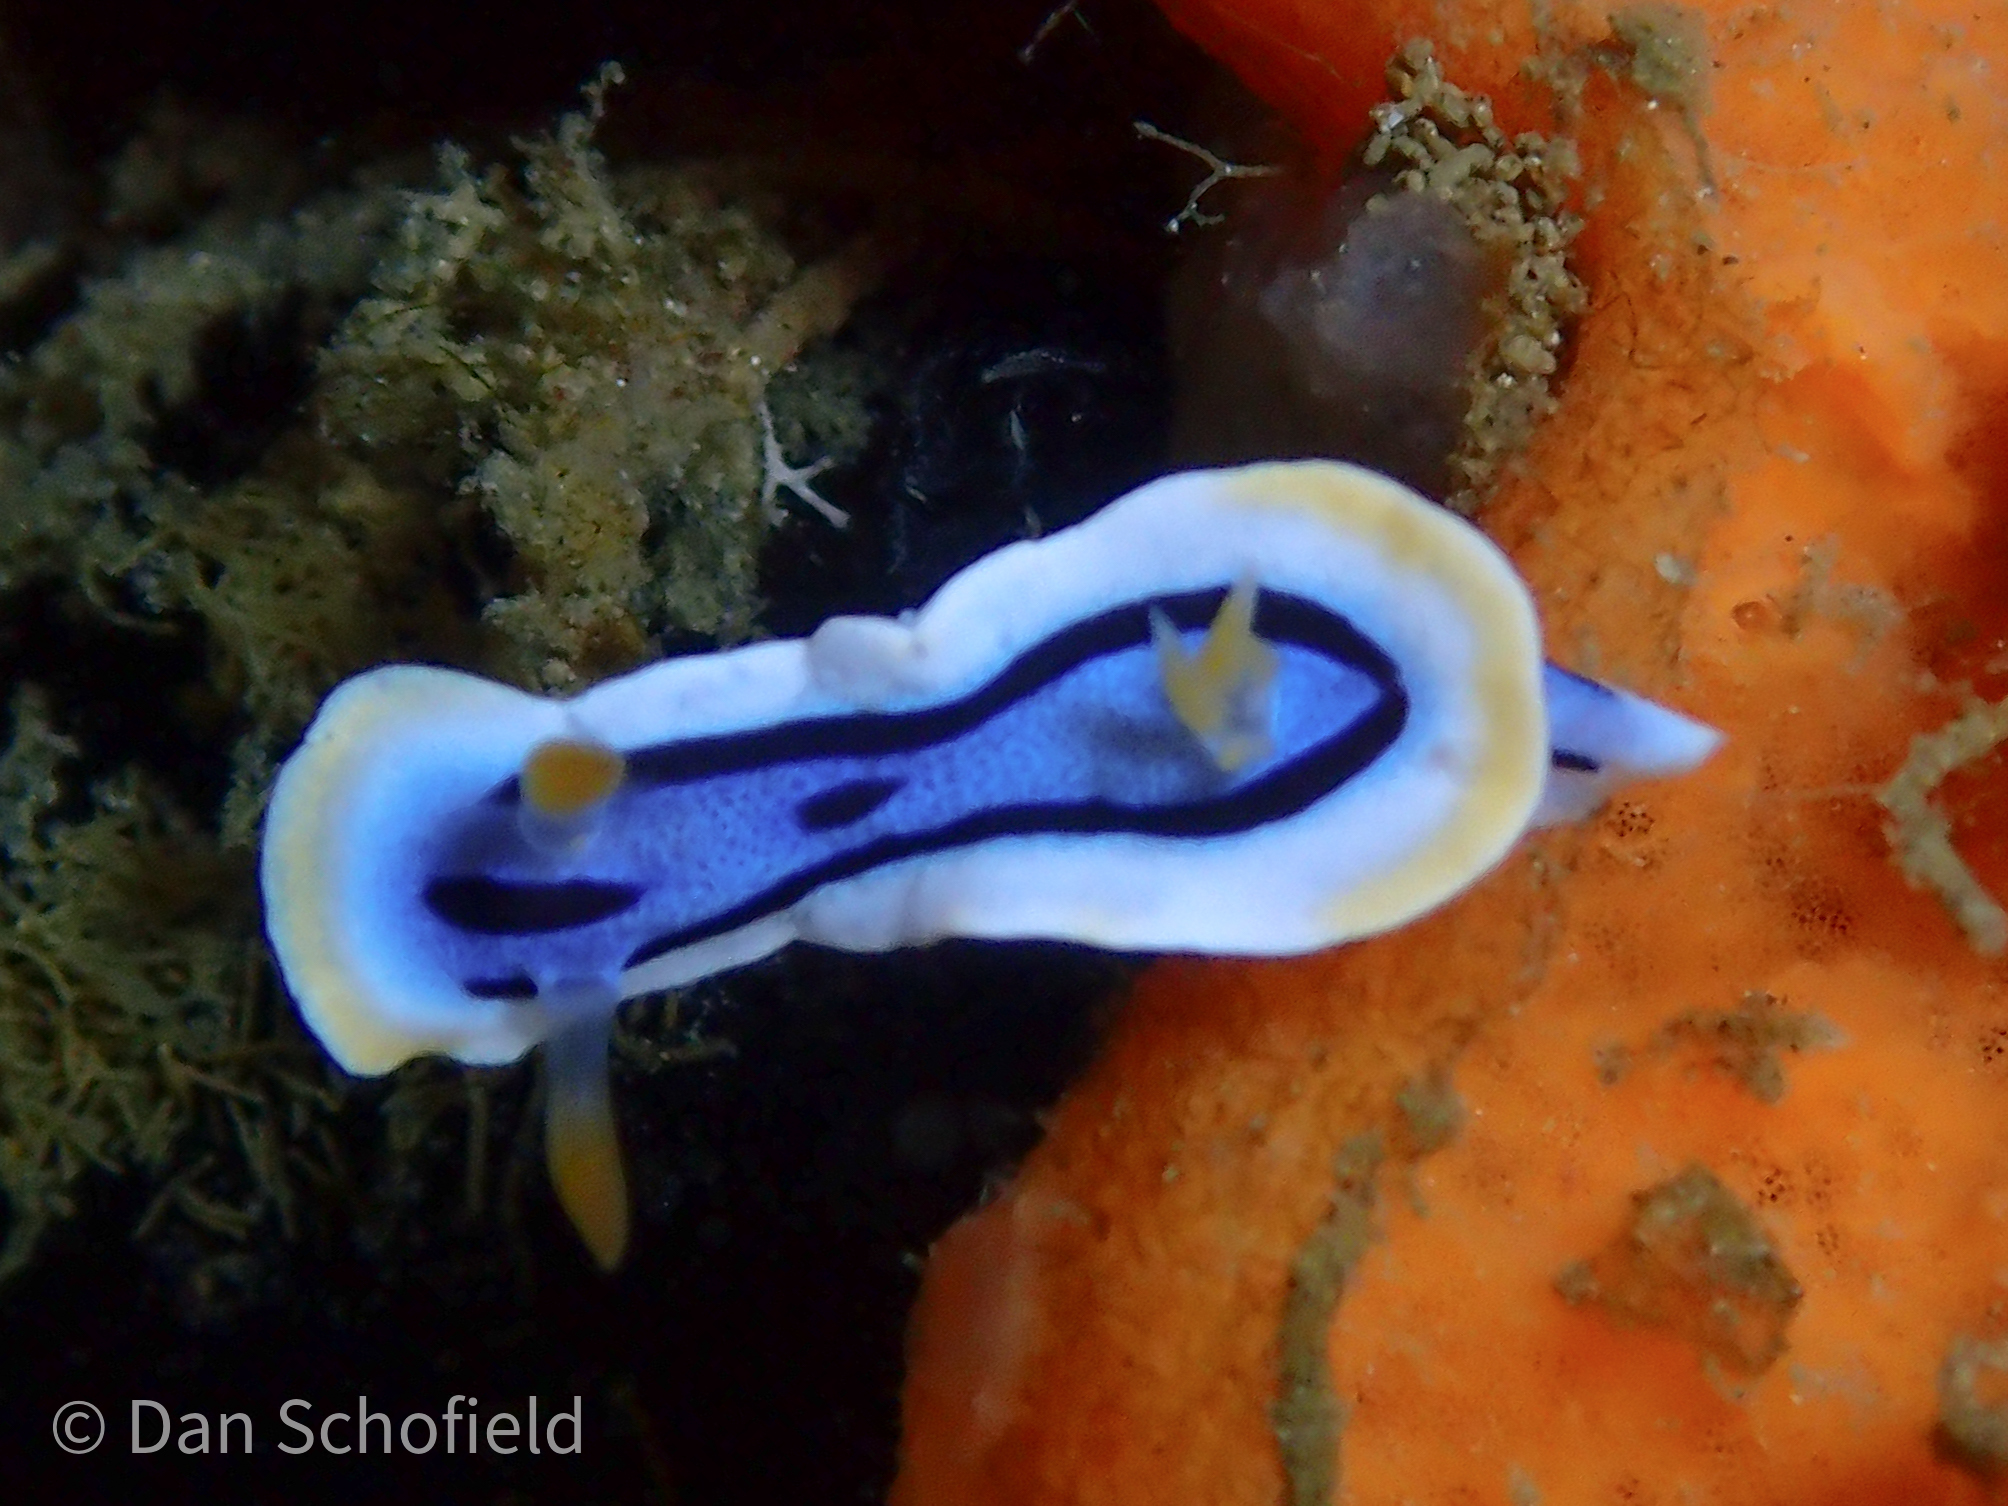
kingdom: Animalia
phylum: Mollusca
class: Gastropoda
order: Nudibranchia
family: Chromodorididae
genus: Chromodoris
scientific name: Chromodoris annae
